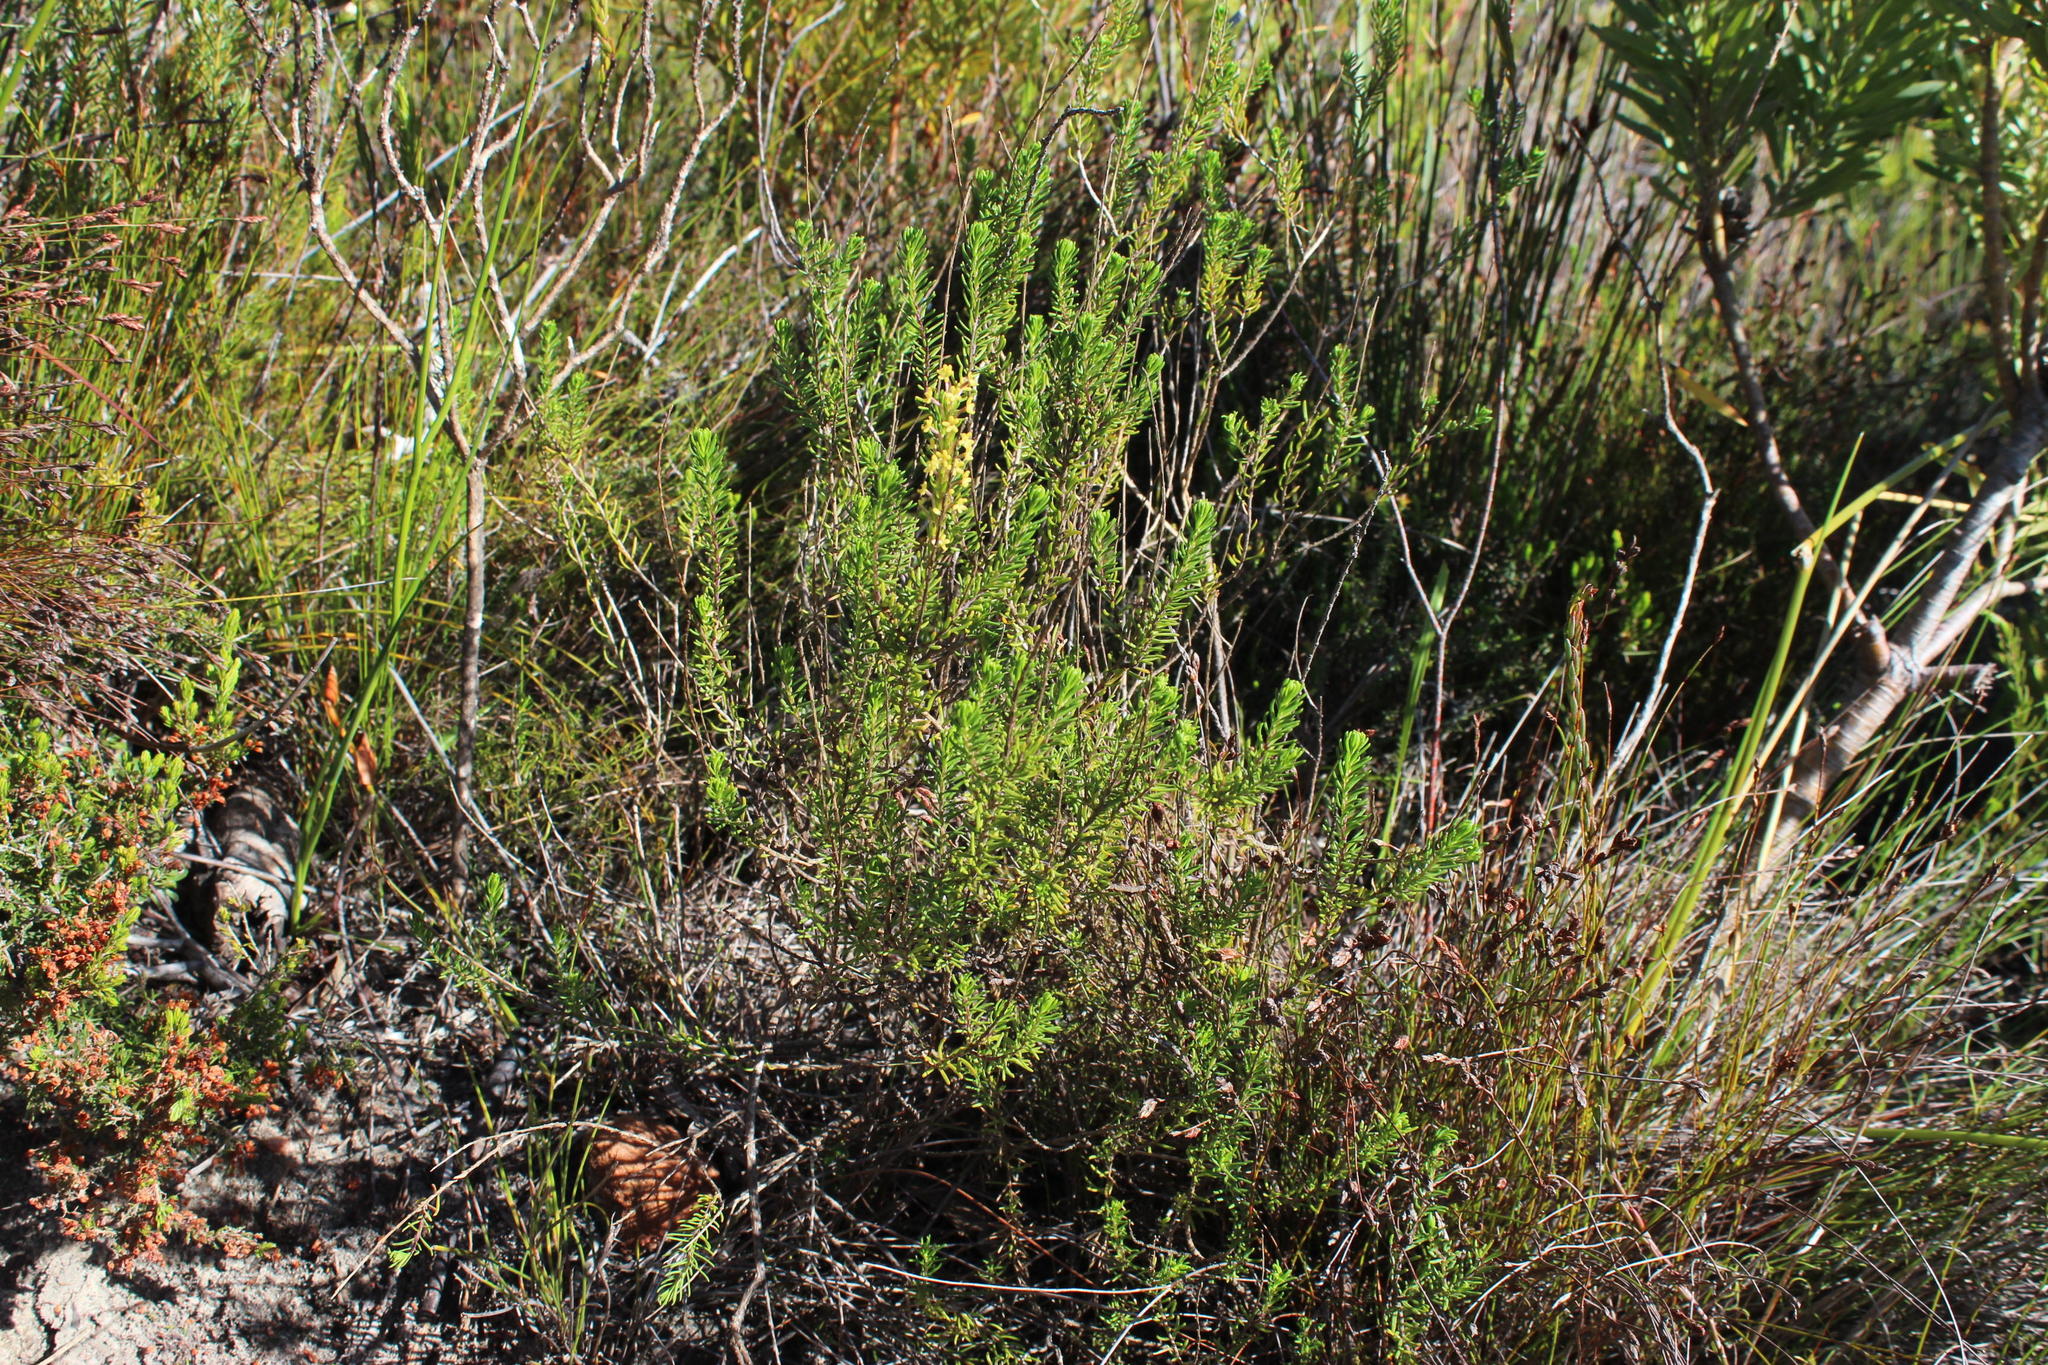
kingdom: Plantae
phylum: Tracheophyta
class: Magnoliopsida
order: Lamiales
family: Scrophulariaceae
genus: Microdon
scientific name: Microdon dubius
